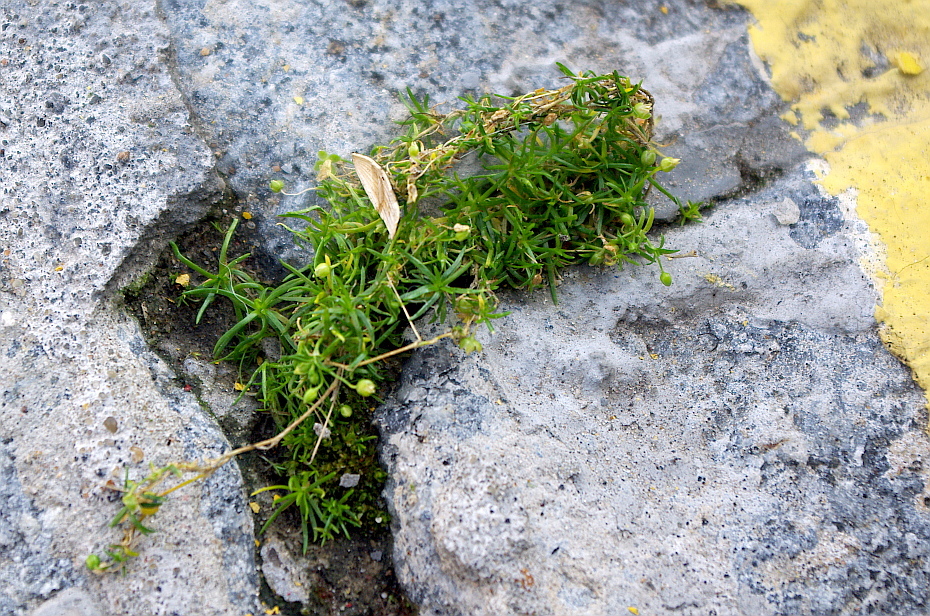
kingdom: Plantae
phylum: Tracheophyta
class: Magnoliopsida
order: Caryophyllales
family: Caryophyllaceae
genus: Sagina
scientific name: Sagina procumbens
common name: Procumbent pearlwort
